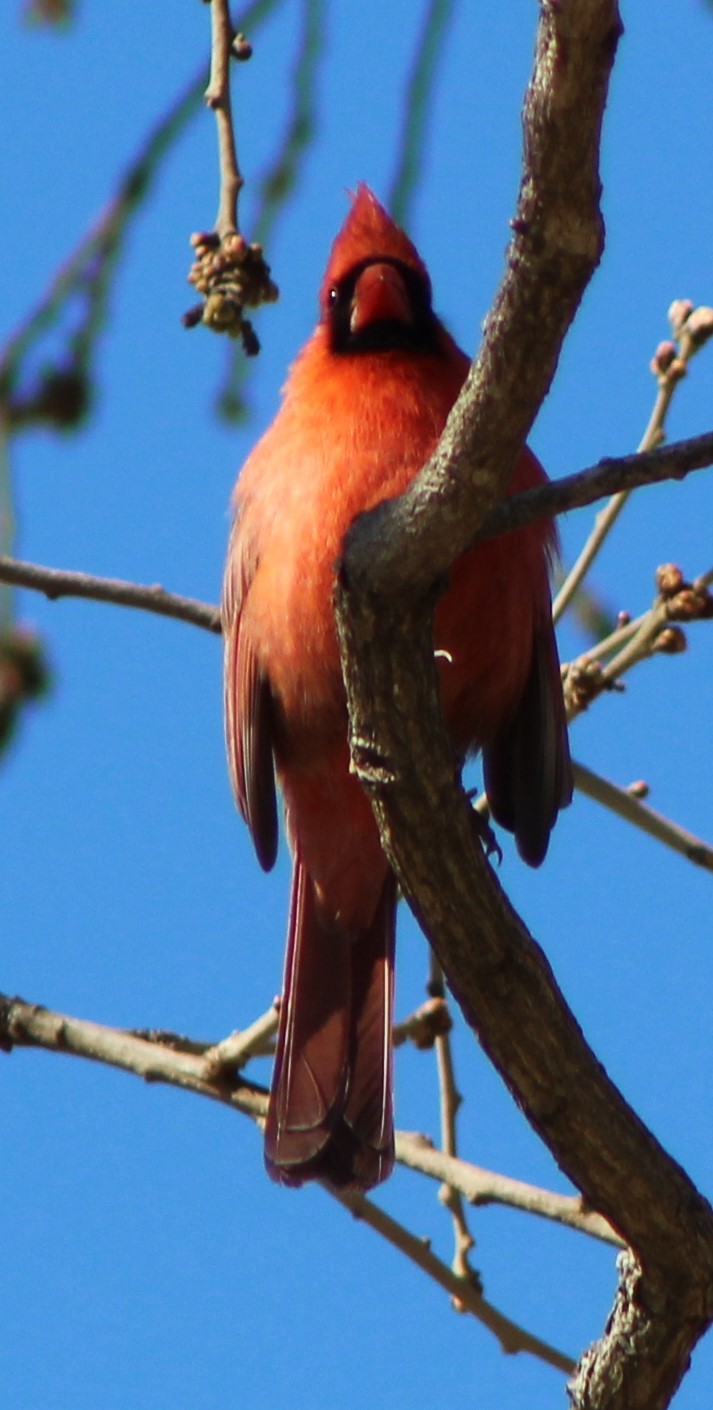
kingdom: Animalia
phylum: Chordata
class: Aves
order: Passeriformes
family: Cardinalidae
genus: Cardinalis
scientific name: Cardinalis cardinalis
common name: Northern cardinal
